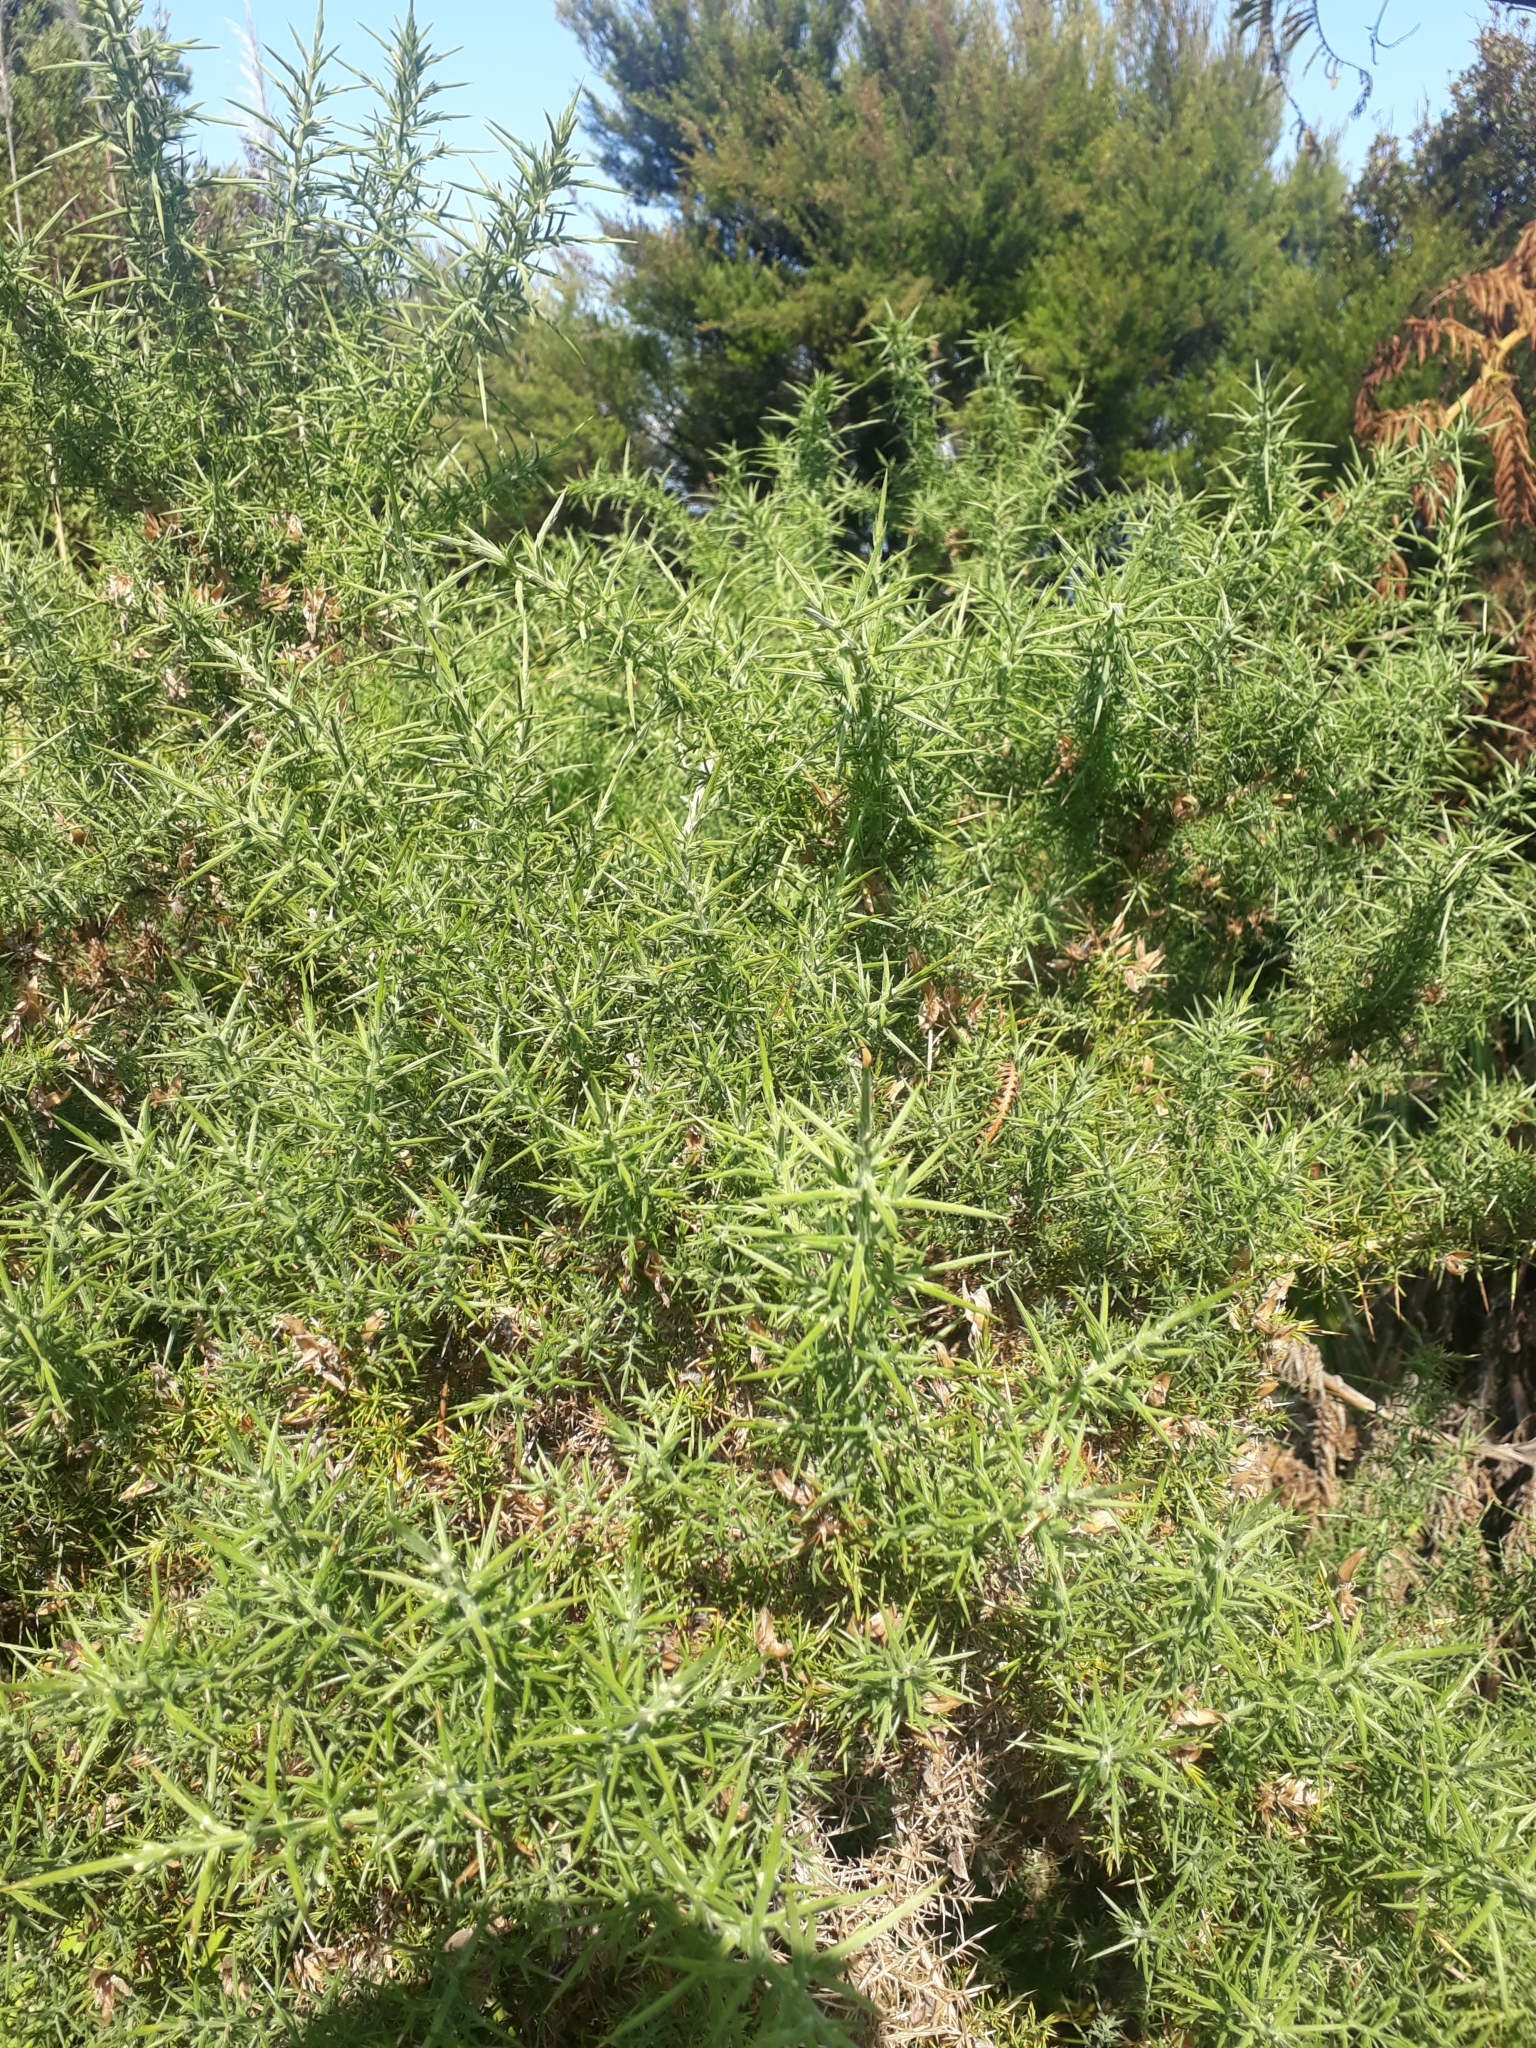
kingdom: Plantae
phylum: Tracheophyta
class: Magnoliopsida
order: Fabales
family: Fabaceae
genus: Ulex
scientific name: Ulex europaeus
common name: Common gorse
